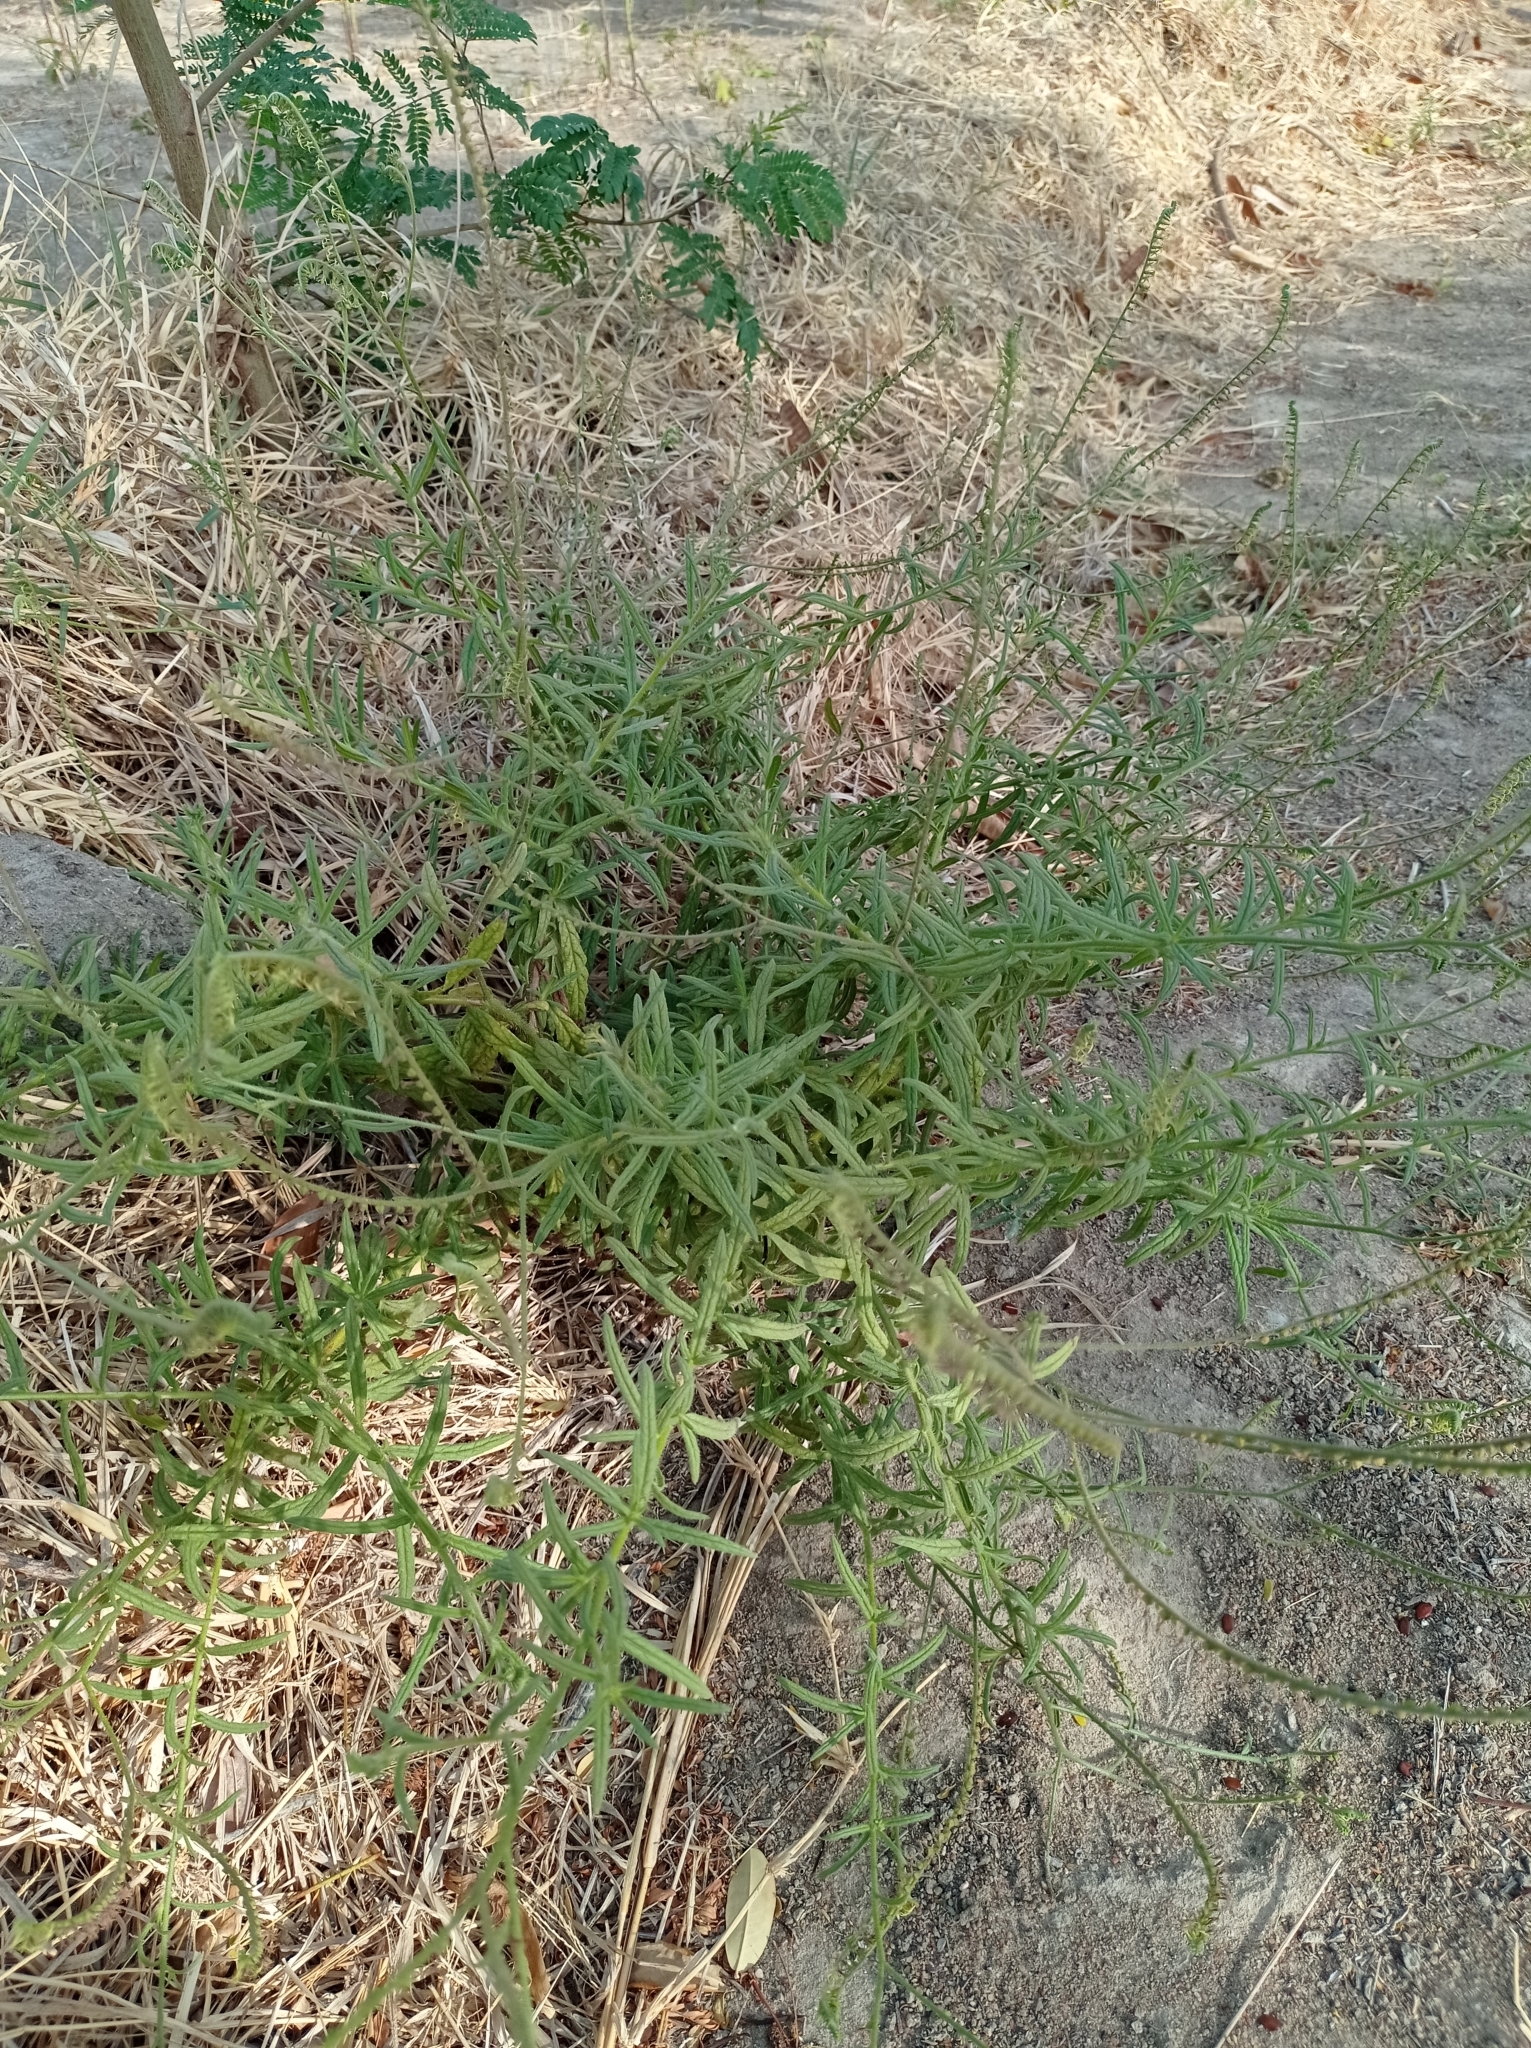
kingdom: Plantae
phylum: Tracheophyta
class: Magnoliopsida
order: Boraginales
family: Heliotropiaceae
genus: Heliotropium
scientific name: Heliotropium zeylanicum
